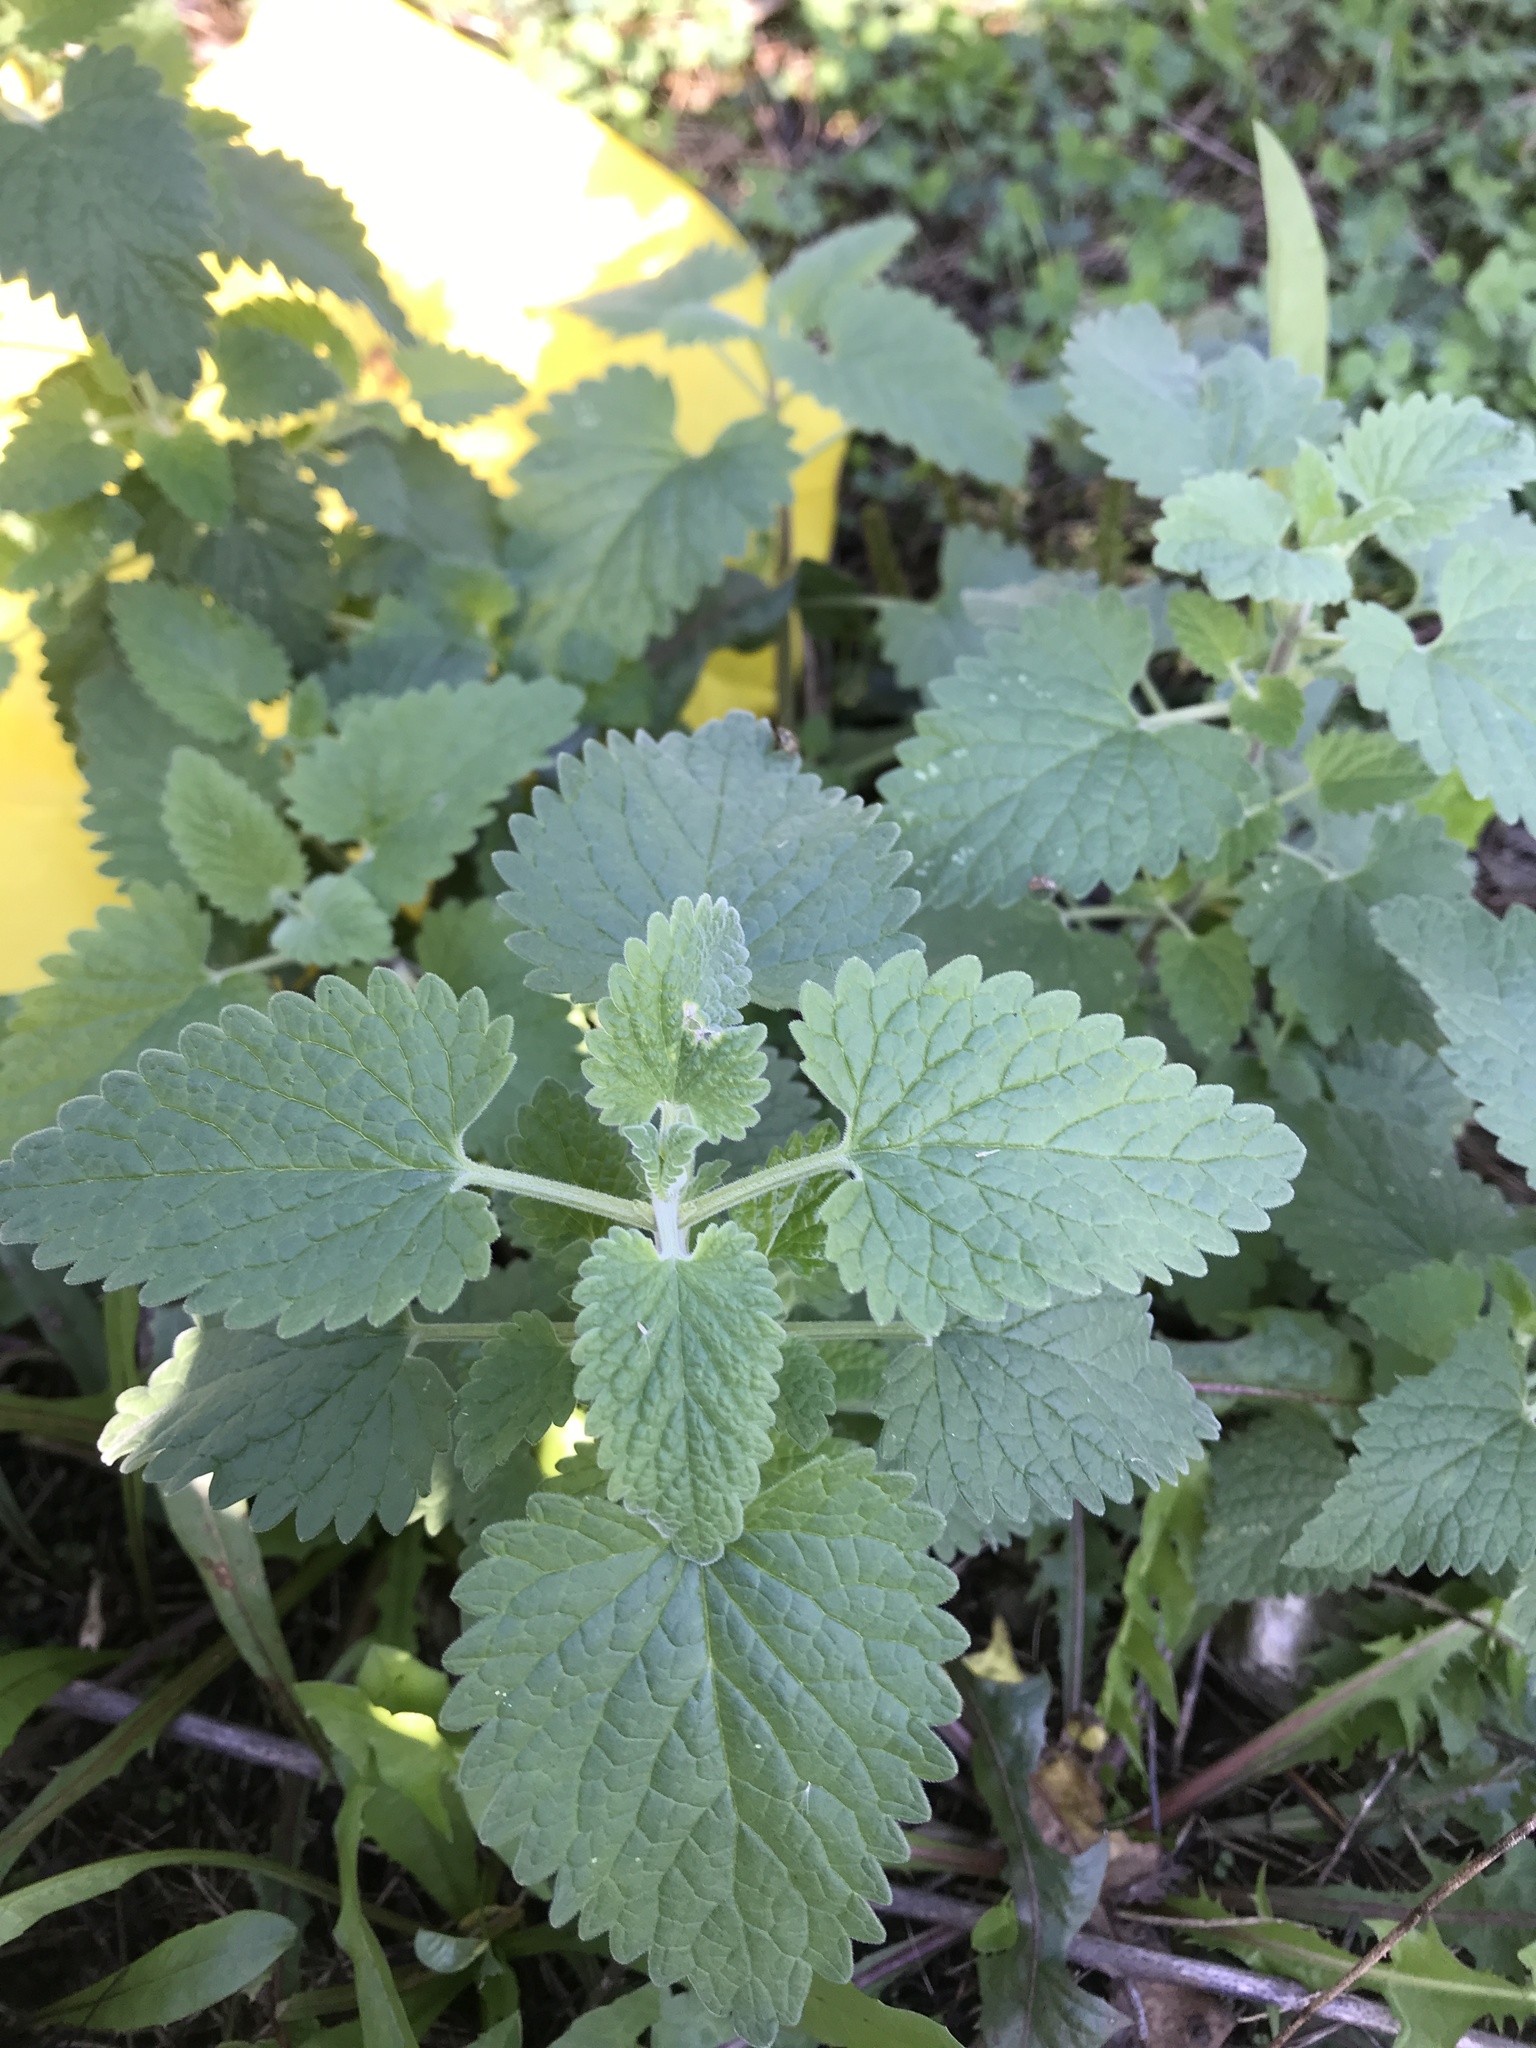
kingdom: Plantae
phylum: Tracheophyta
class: Magnoliopsida
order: Lamiales
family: Lamiaceae
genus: Nepeta
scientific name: Nepeta cataria
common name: Catnip
